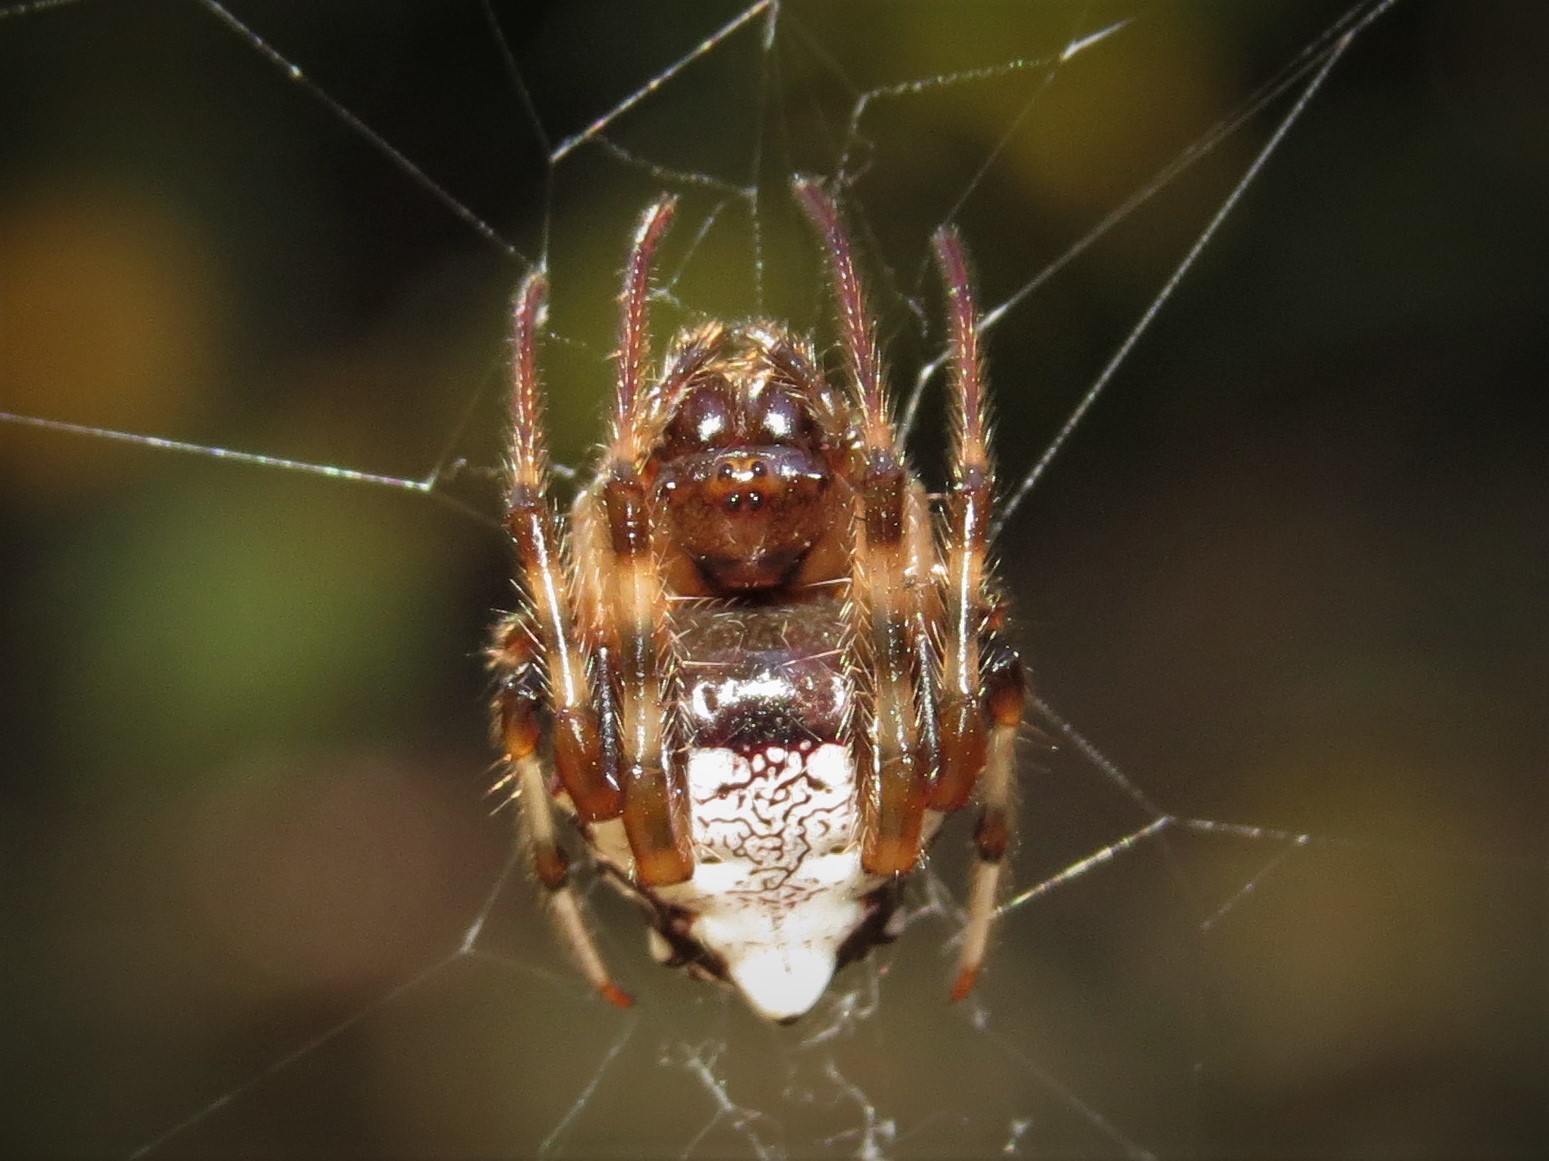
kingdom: Animalia
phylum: Arthropoda
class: Arachnida
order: Araneae
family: Araneidae
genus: Verrucosa
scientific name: Verrucosa arenata
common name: Orb weavers
